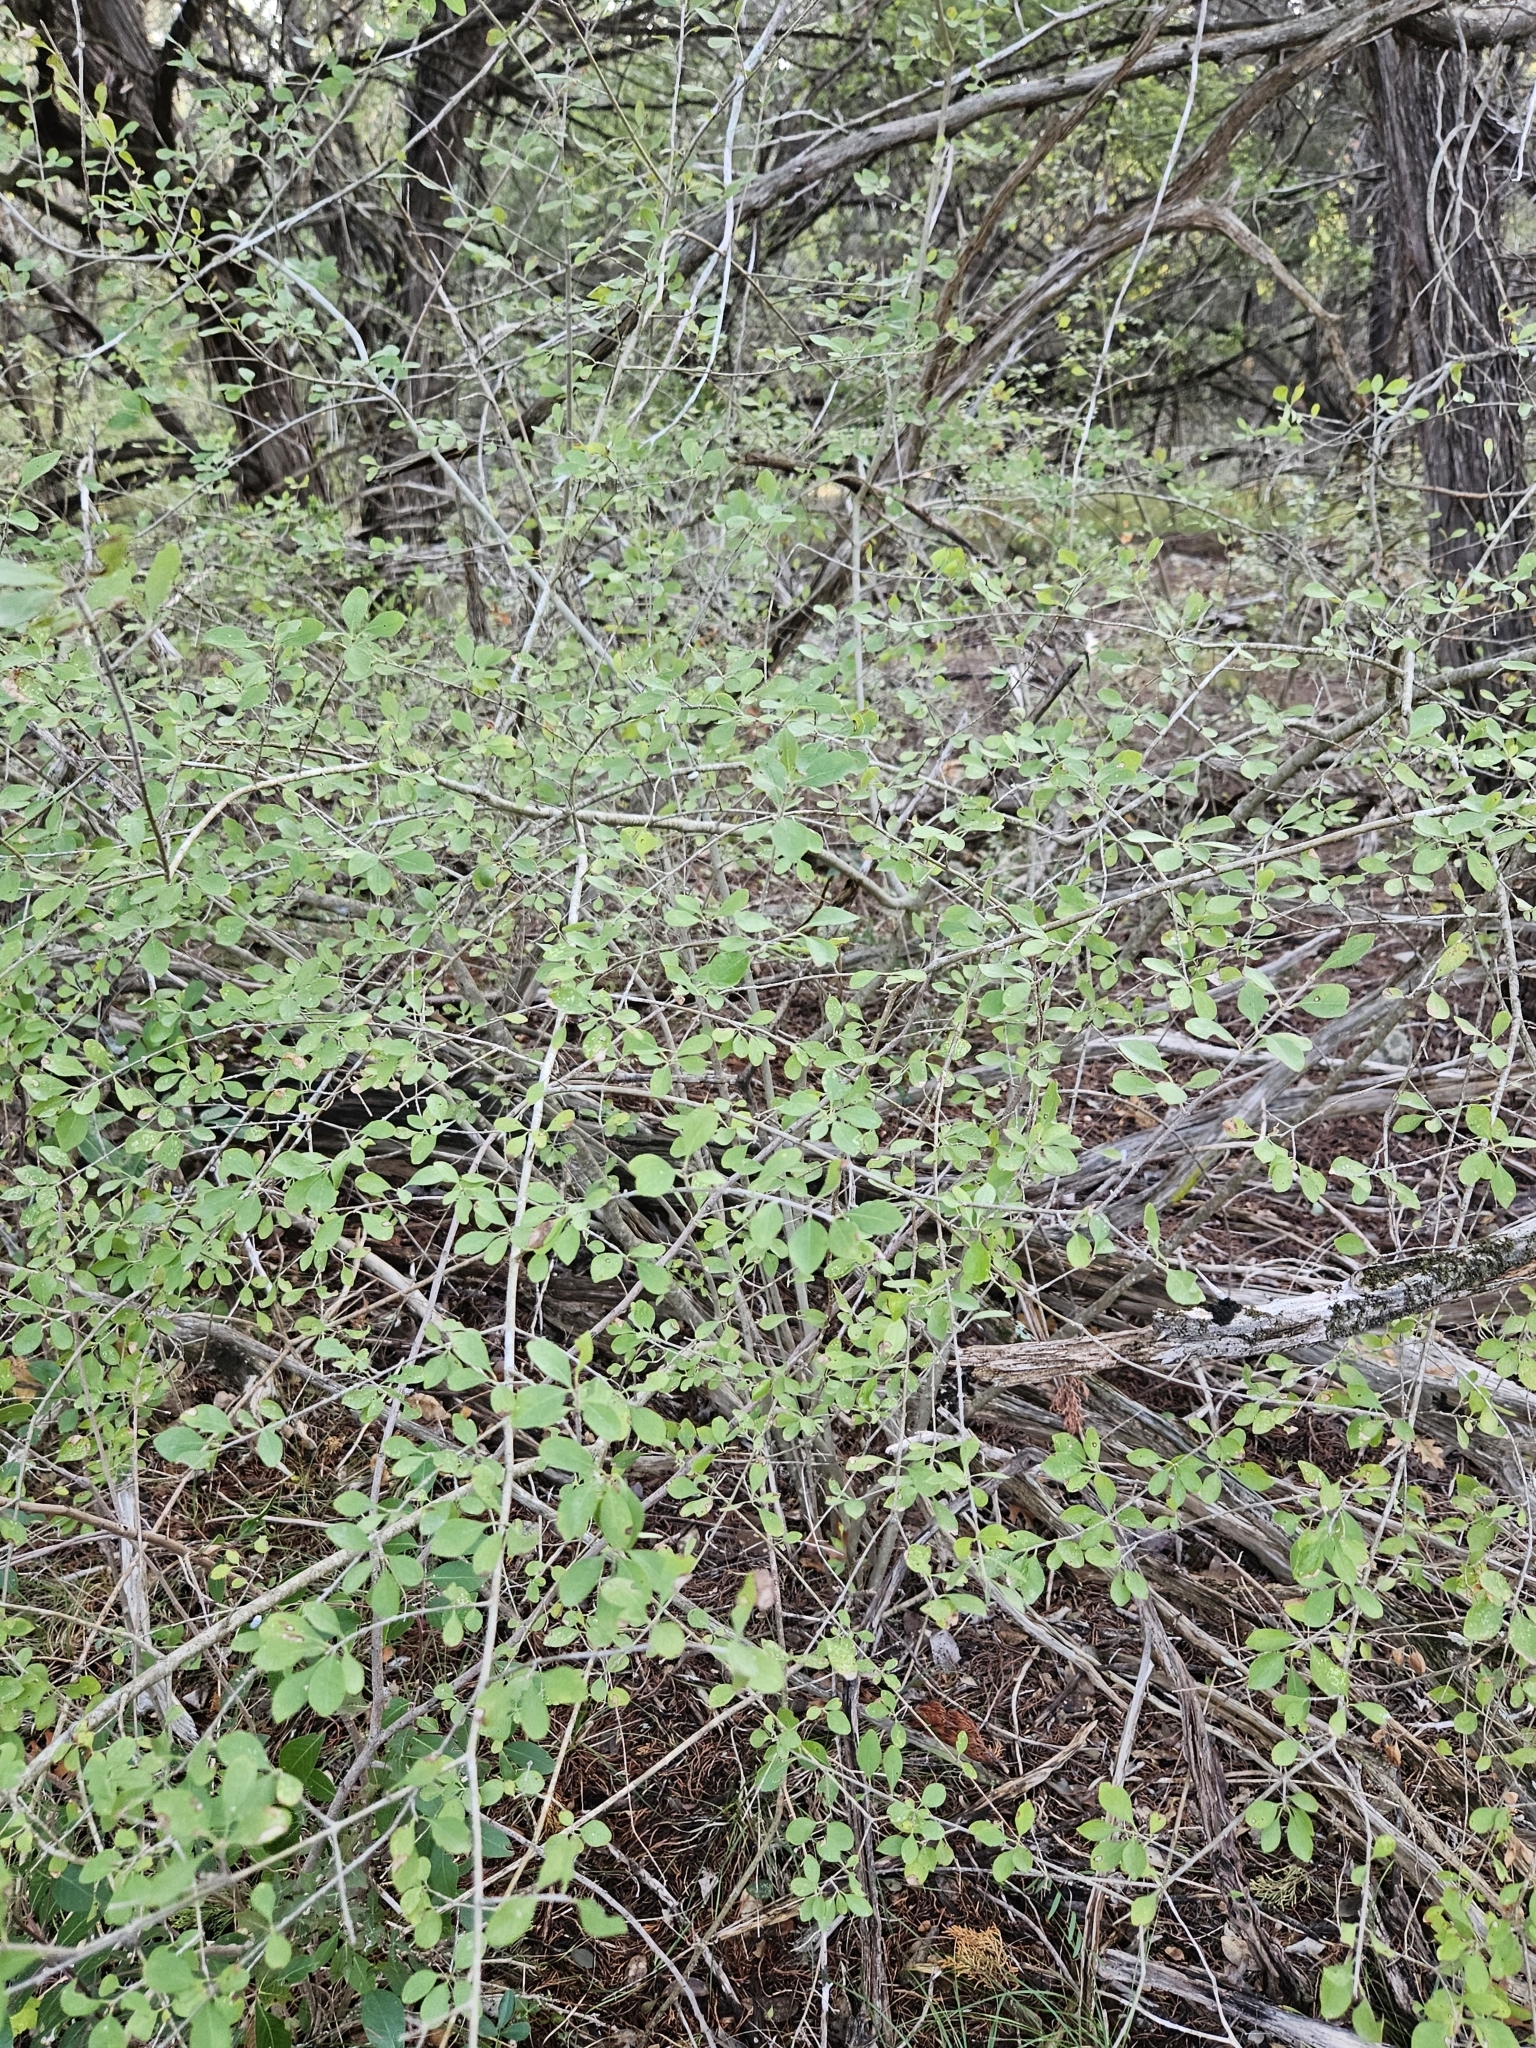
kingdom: Plantae
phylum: Tracheophyta
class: Magnoliopsida
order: Lamiales
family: Oleaceae
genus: Forestiera
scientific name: Forestiera pubescens
